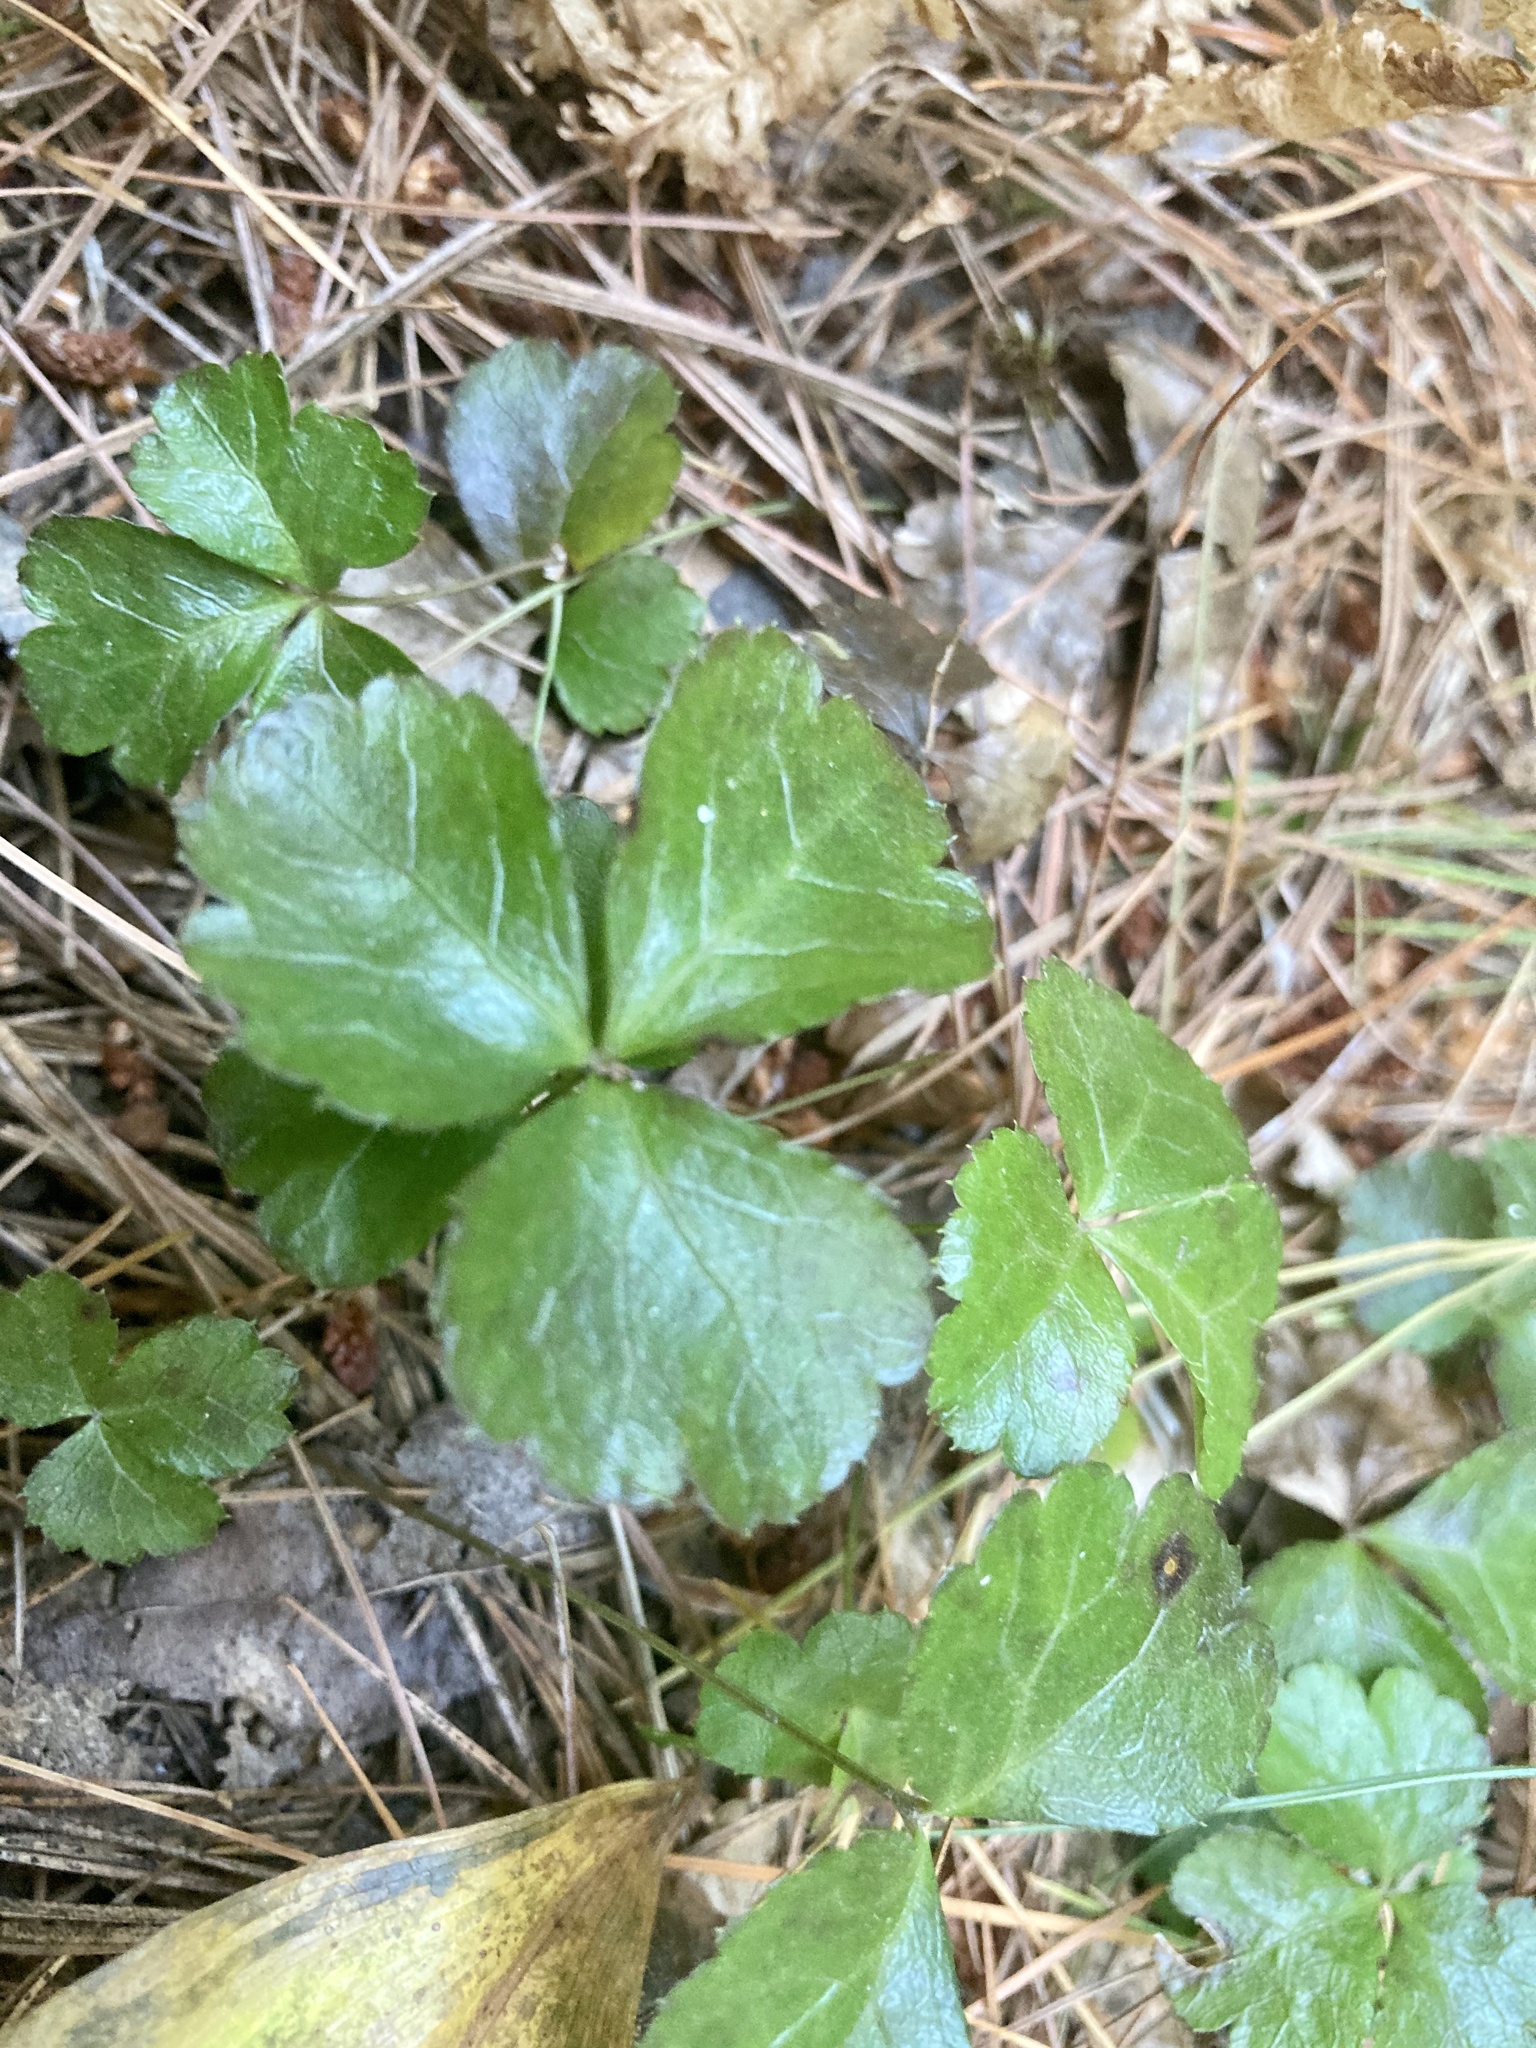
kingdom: Plantae
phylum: Tracheophyta
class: Magnoliopsida
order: Ranunculales
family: Ranunculaceae
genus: Coptis
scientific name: Coptis trifolia
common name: Canker-root
